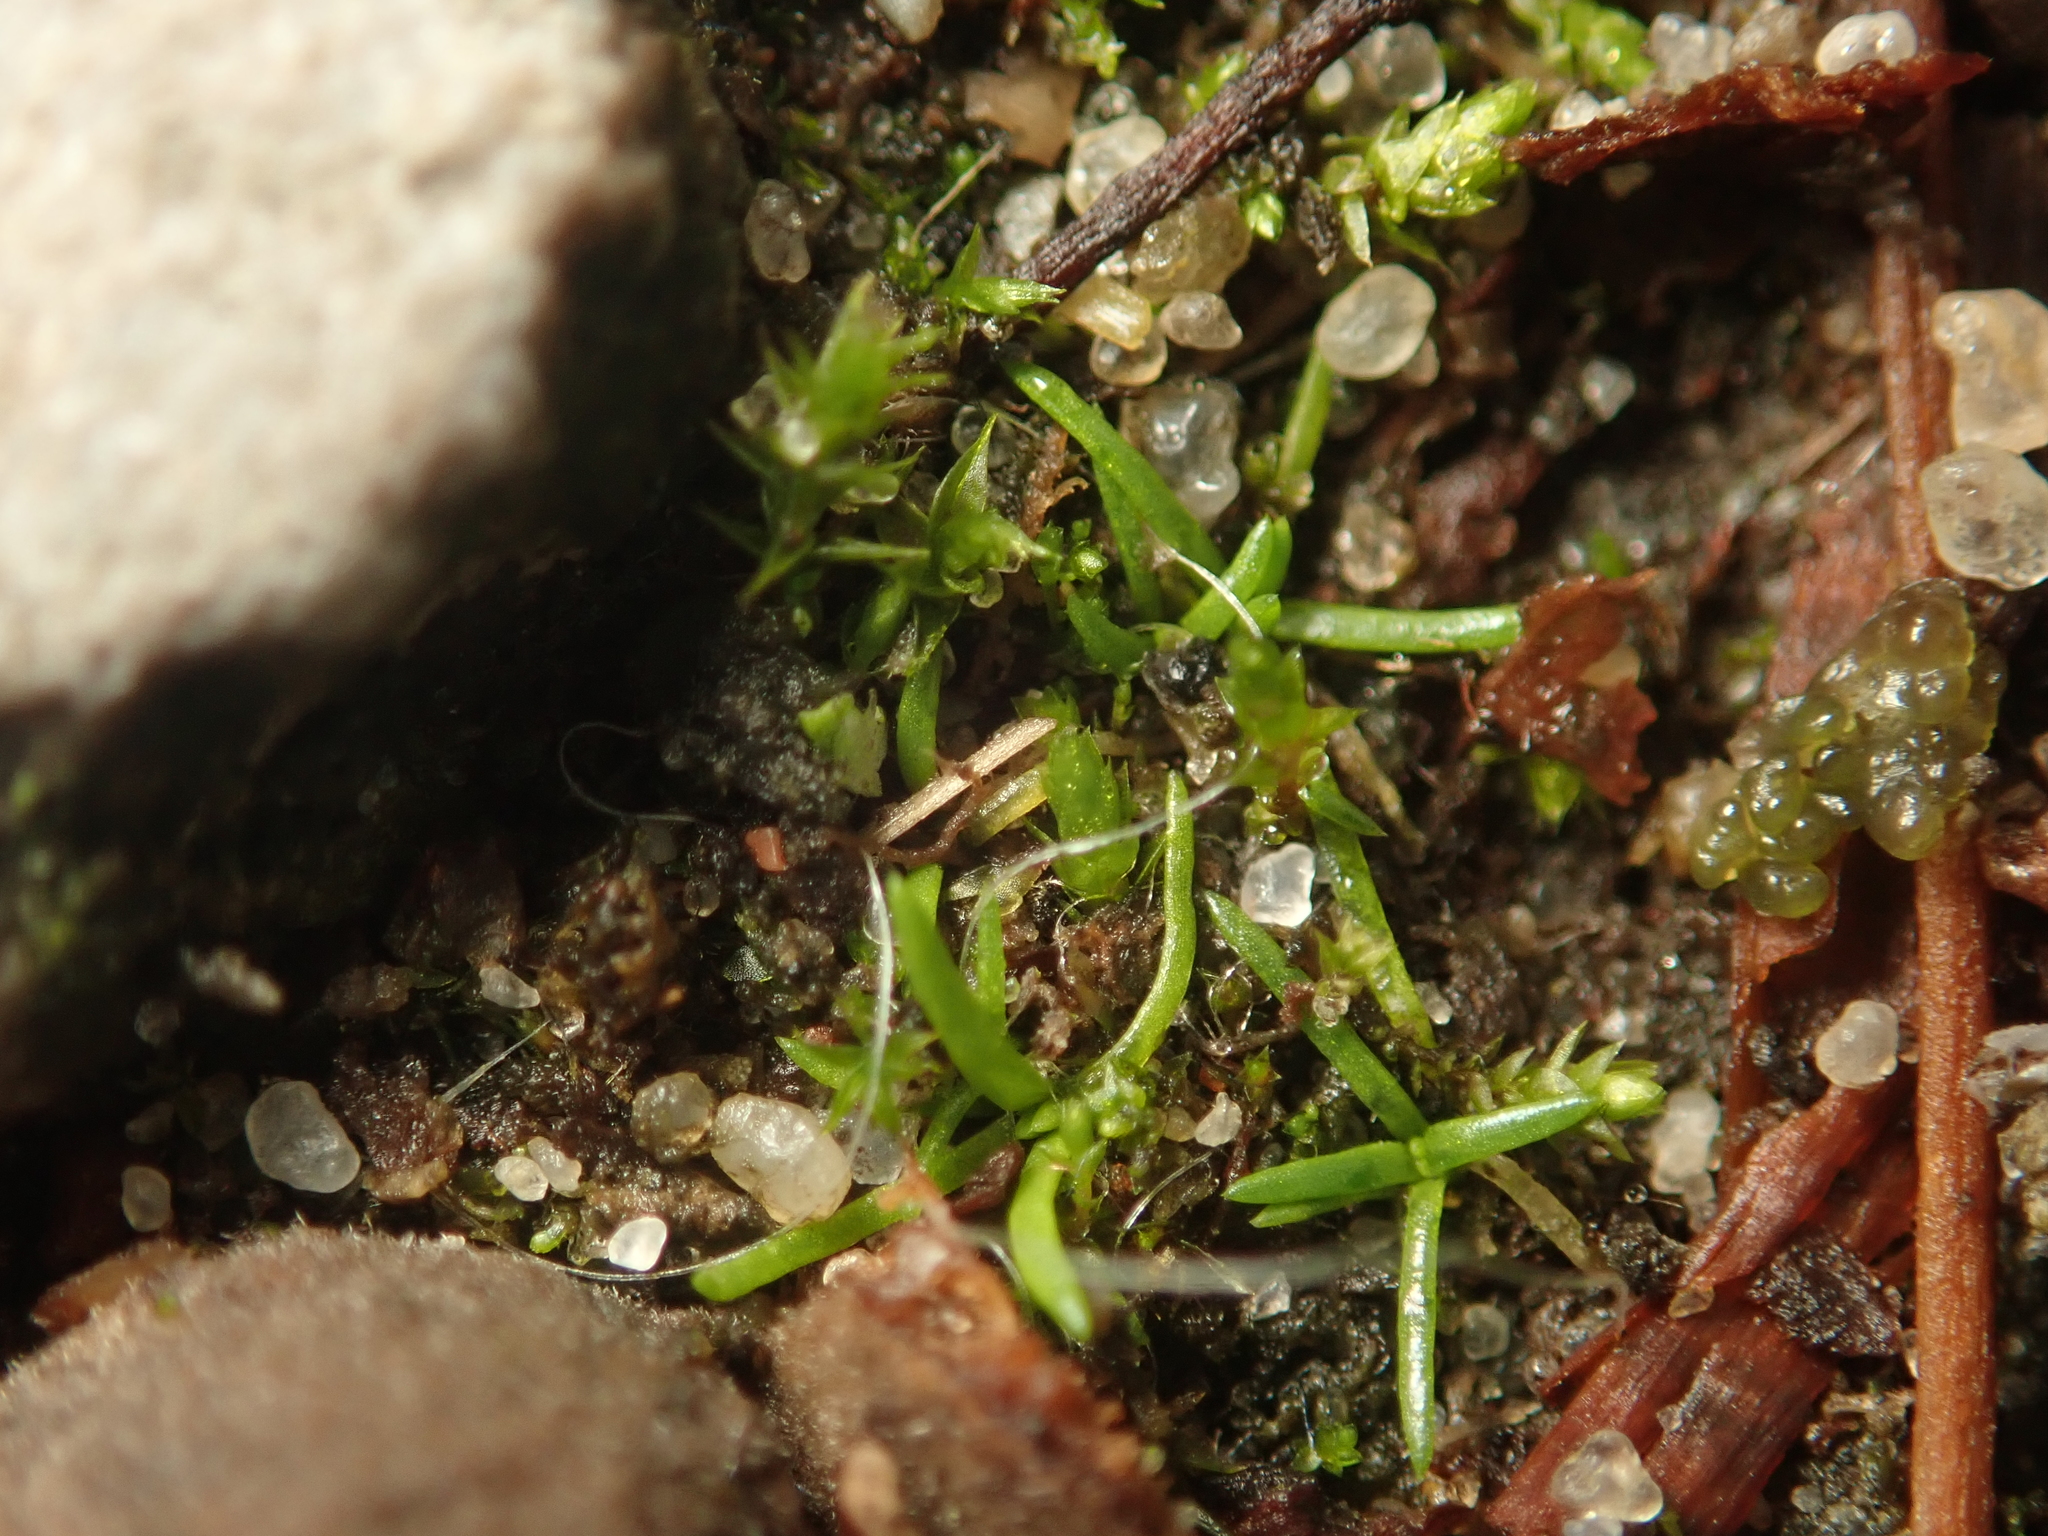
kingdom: Plantae
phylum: Tracheophyta
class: Magnoliopsida
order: Caryophyllales
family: Caryophyllaceae
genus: Sagina
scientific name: Sagina procumbens
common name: Procumbent pearlwort
